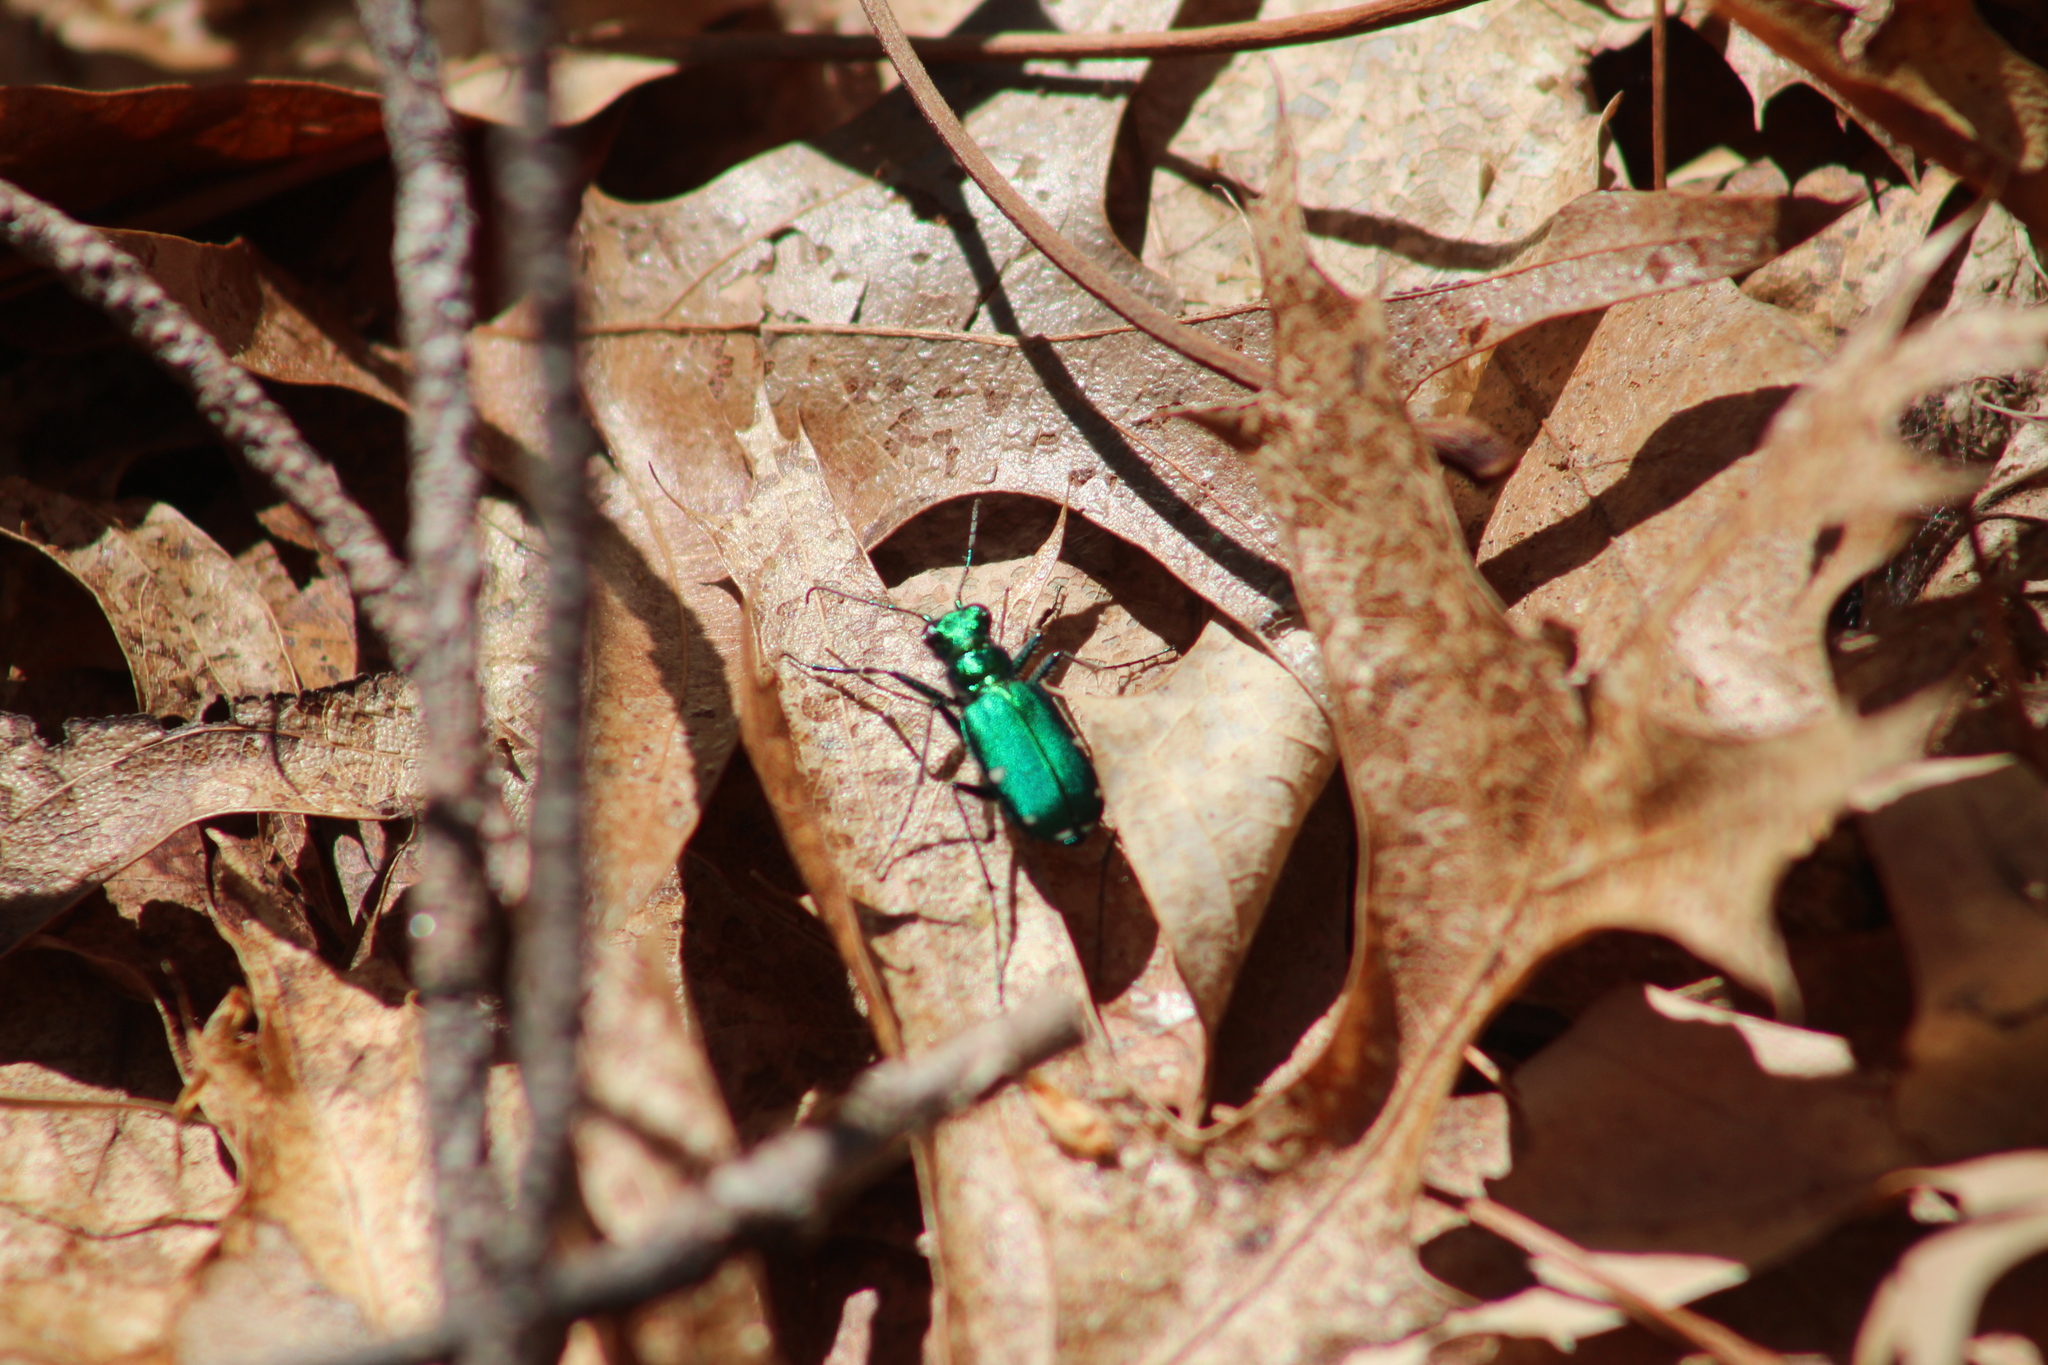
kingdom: Animalia
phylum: Arthropoda
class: Insecta
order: Coleoptera
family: Carabidae
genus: Cicindela
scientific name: Cicindela sexguttata
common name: Six-spotted tiger beetle
